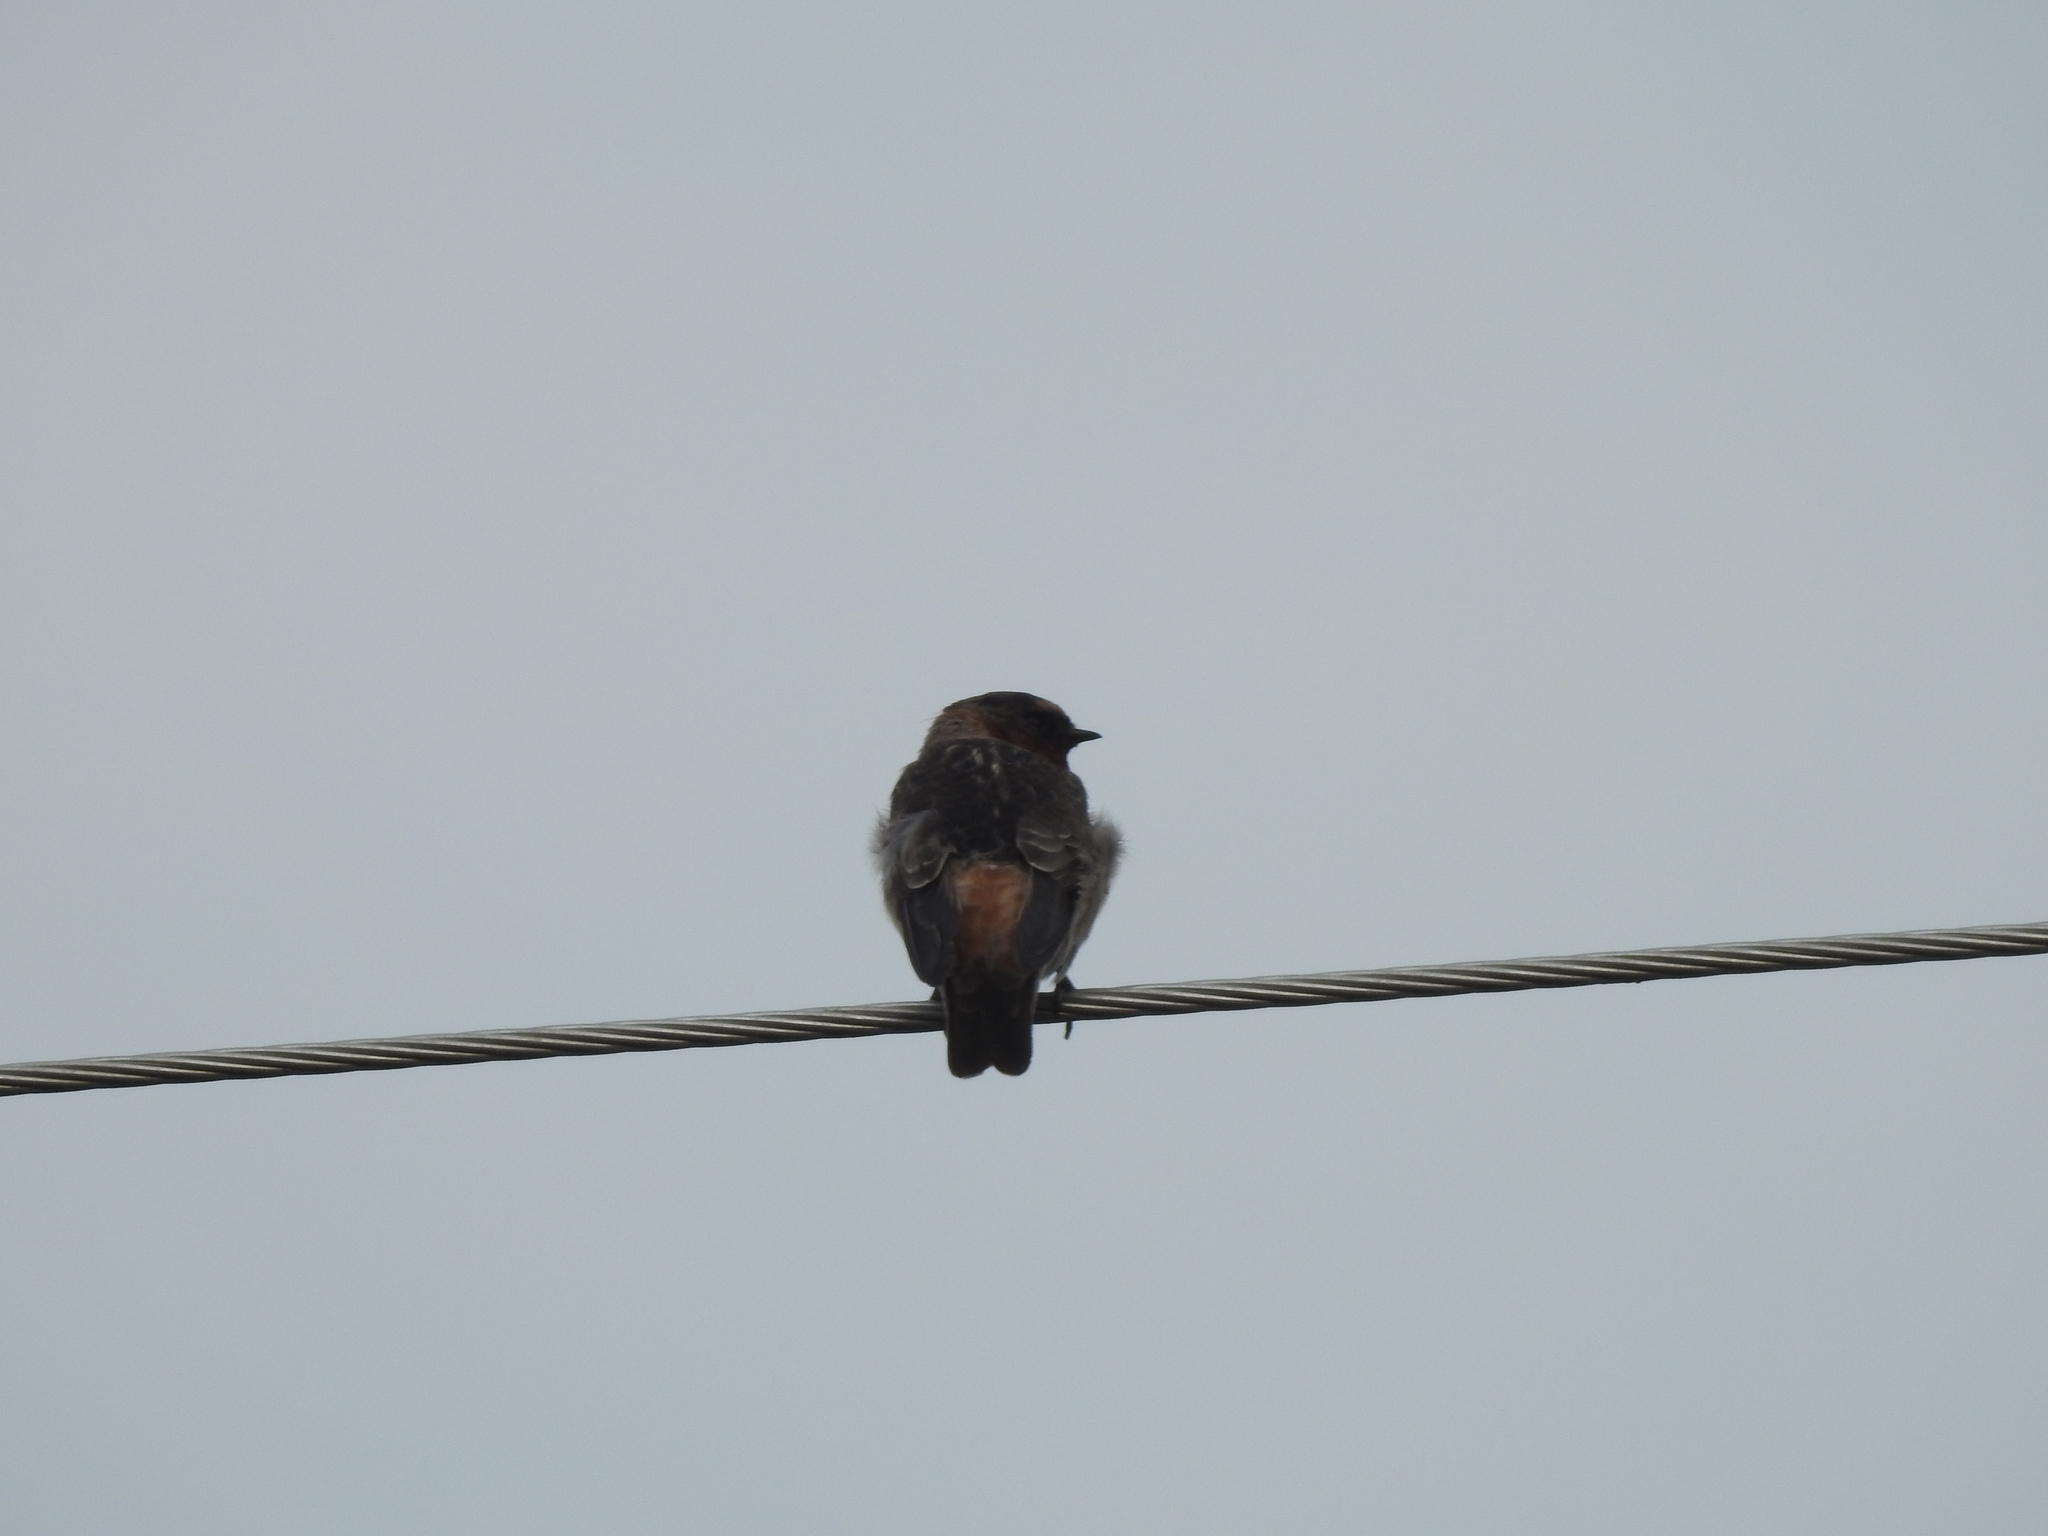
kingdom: Animalia
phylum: Chordata
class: Aves
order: Passeriformes
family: Hirundinidae
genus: Petrochelidon
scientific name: Petrochelidon pyrrhonota
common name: American cliff swallow
